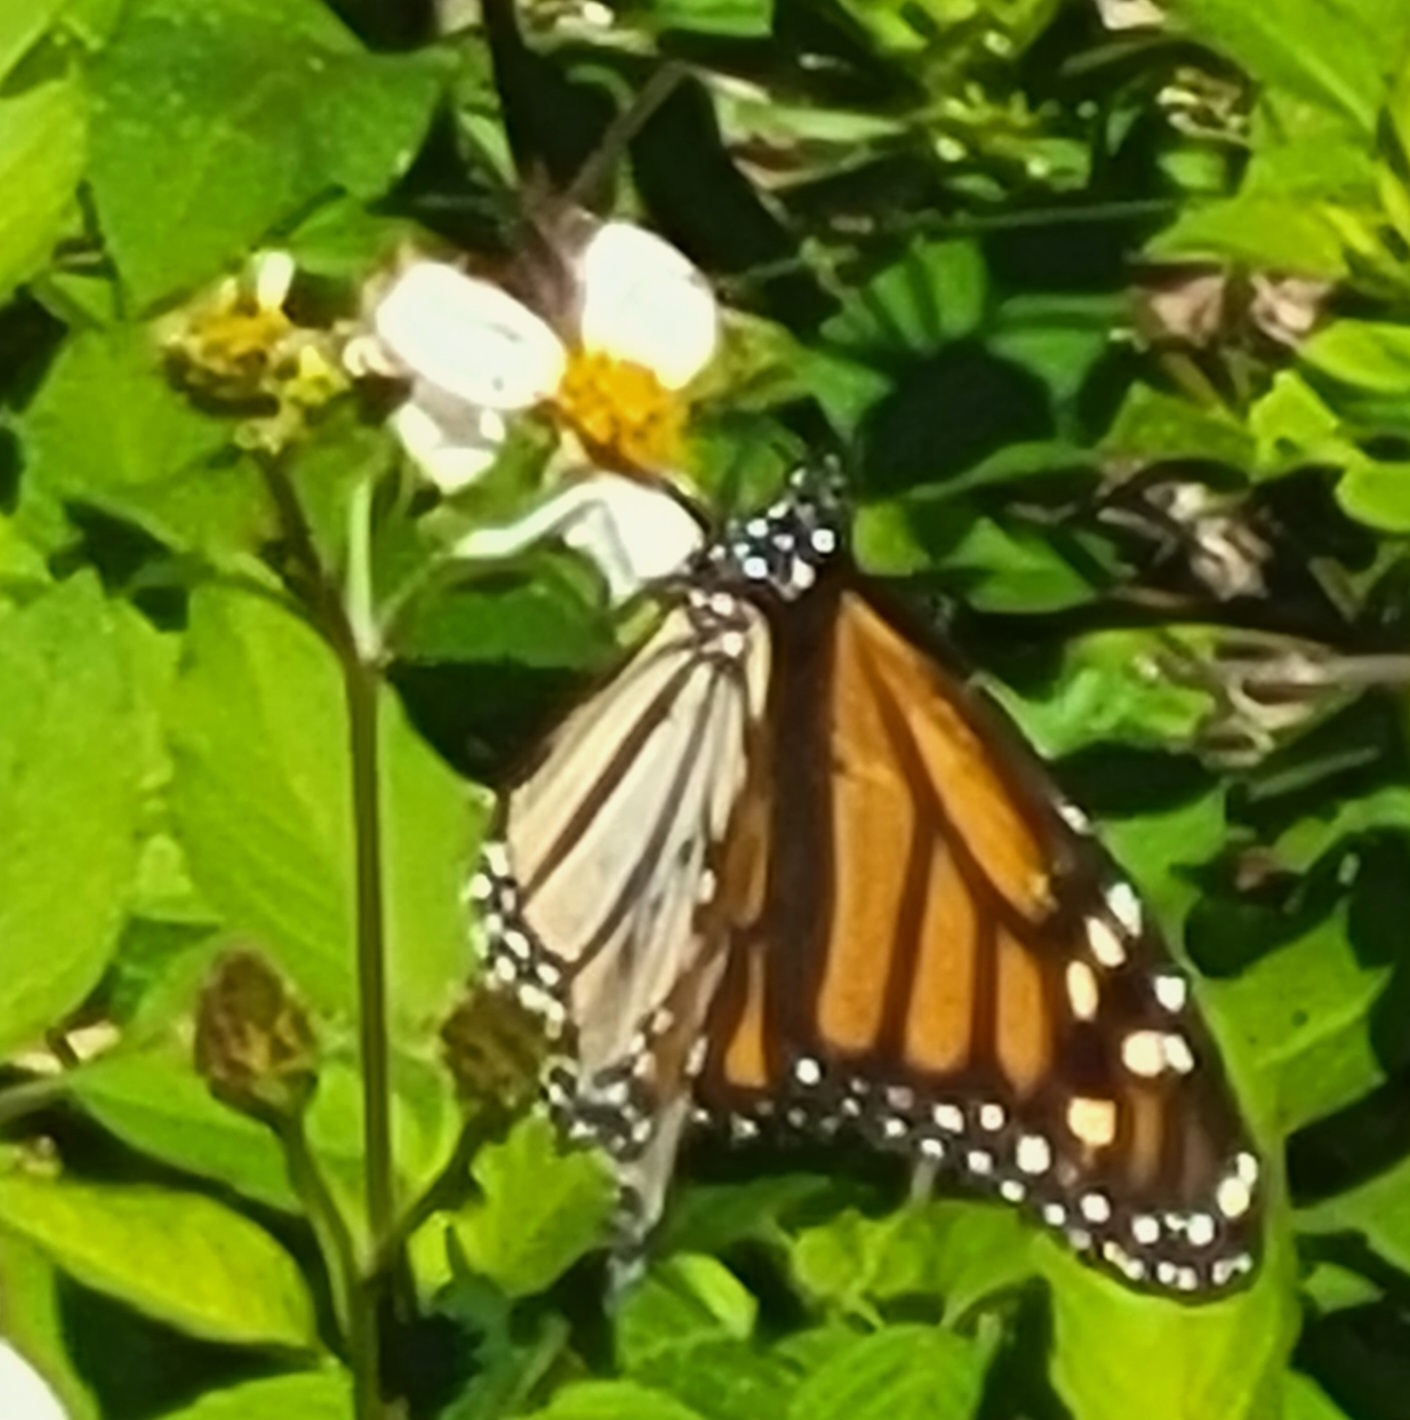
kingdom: Animalia
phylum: Arthropoda
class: Insecta
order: Lepidoptera
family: Nymphalidae
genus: Danaus
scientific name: Danaus plexippus
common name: Monarch
